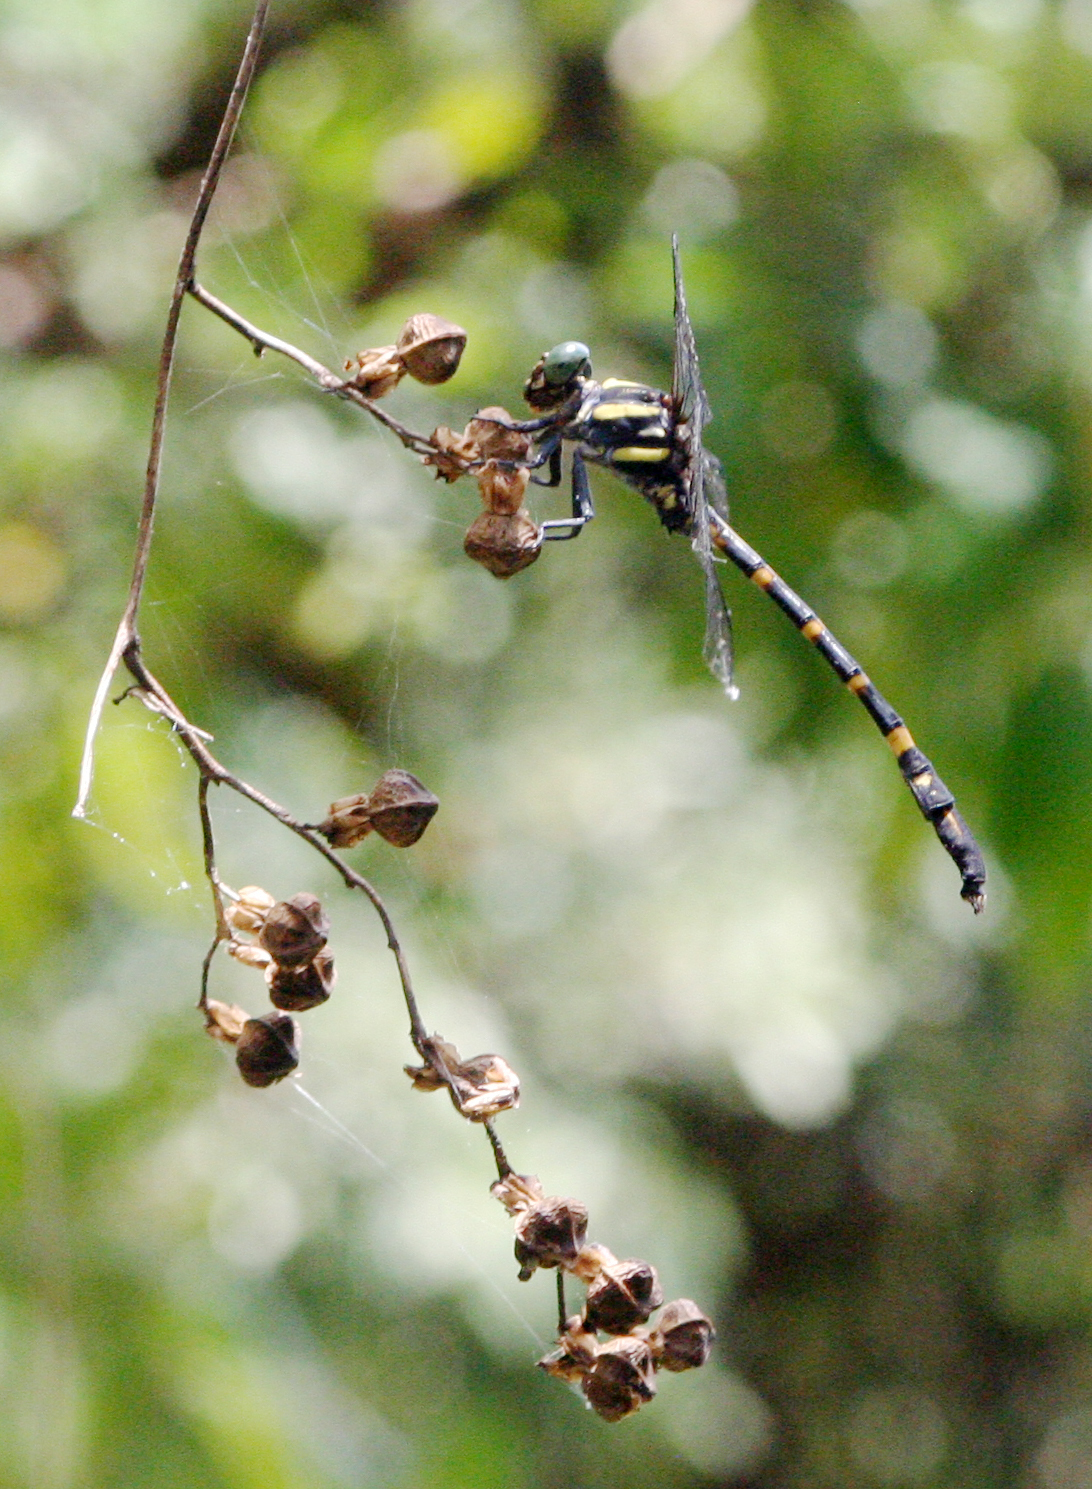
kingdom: Animalia
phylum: Arthropoda
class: Insecta
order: Odonata
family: Gomphidae
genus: Macrogomphus
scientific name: Macrogomphus phalantus
